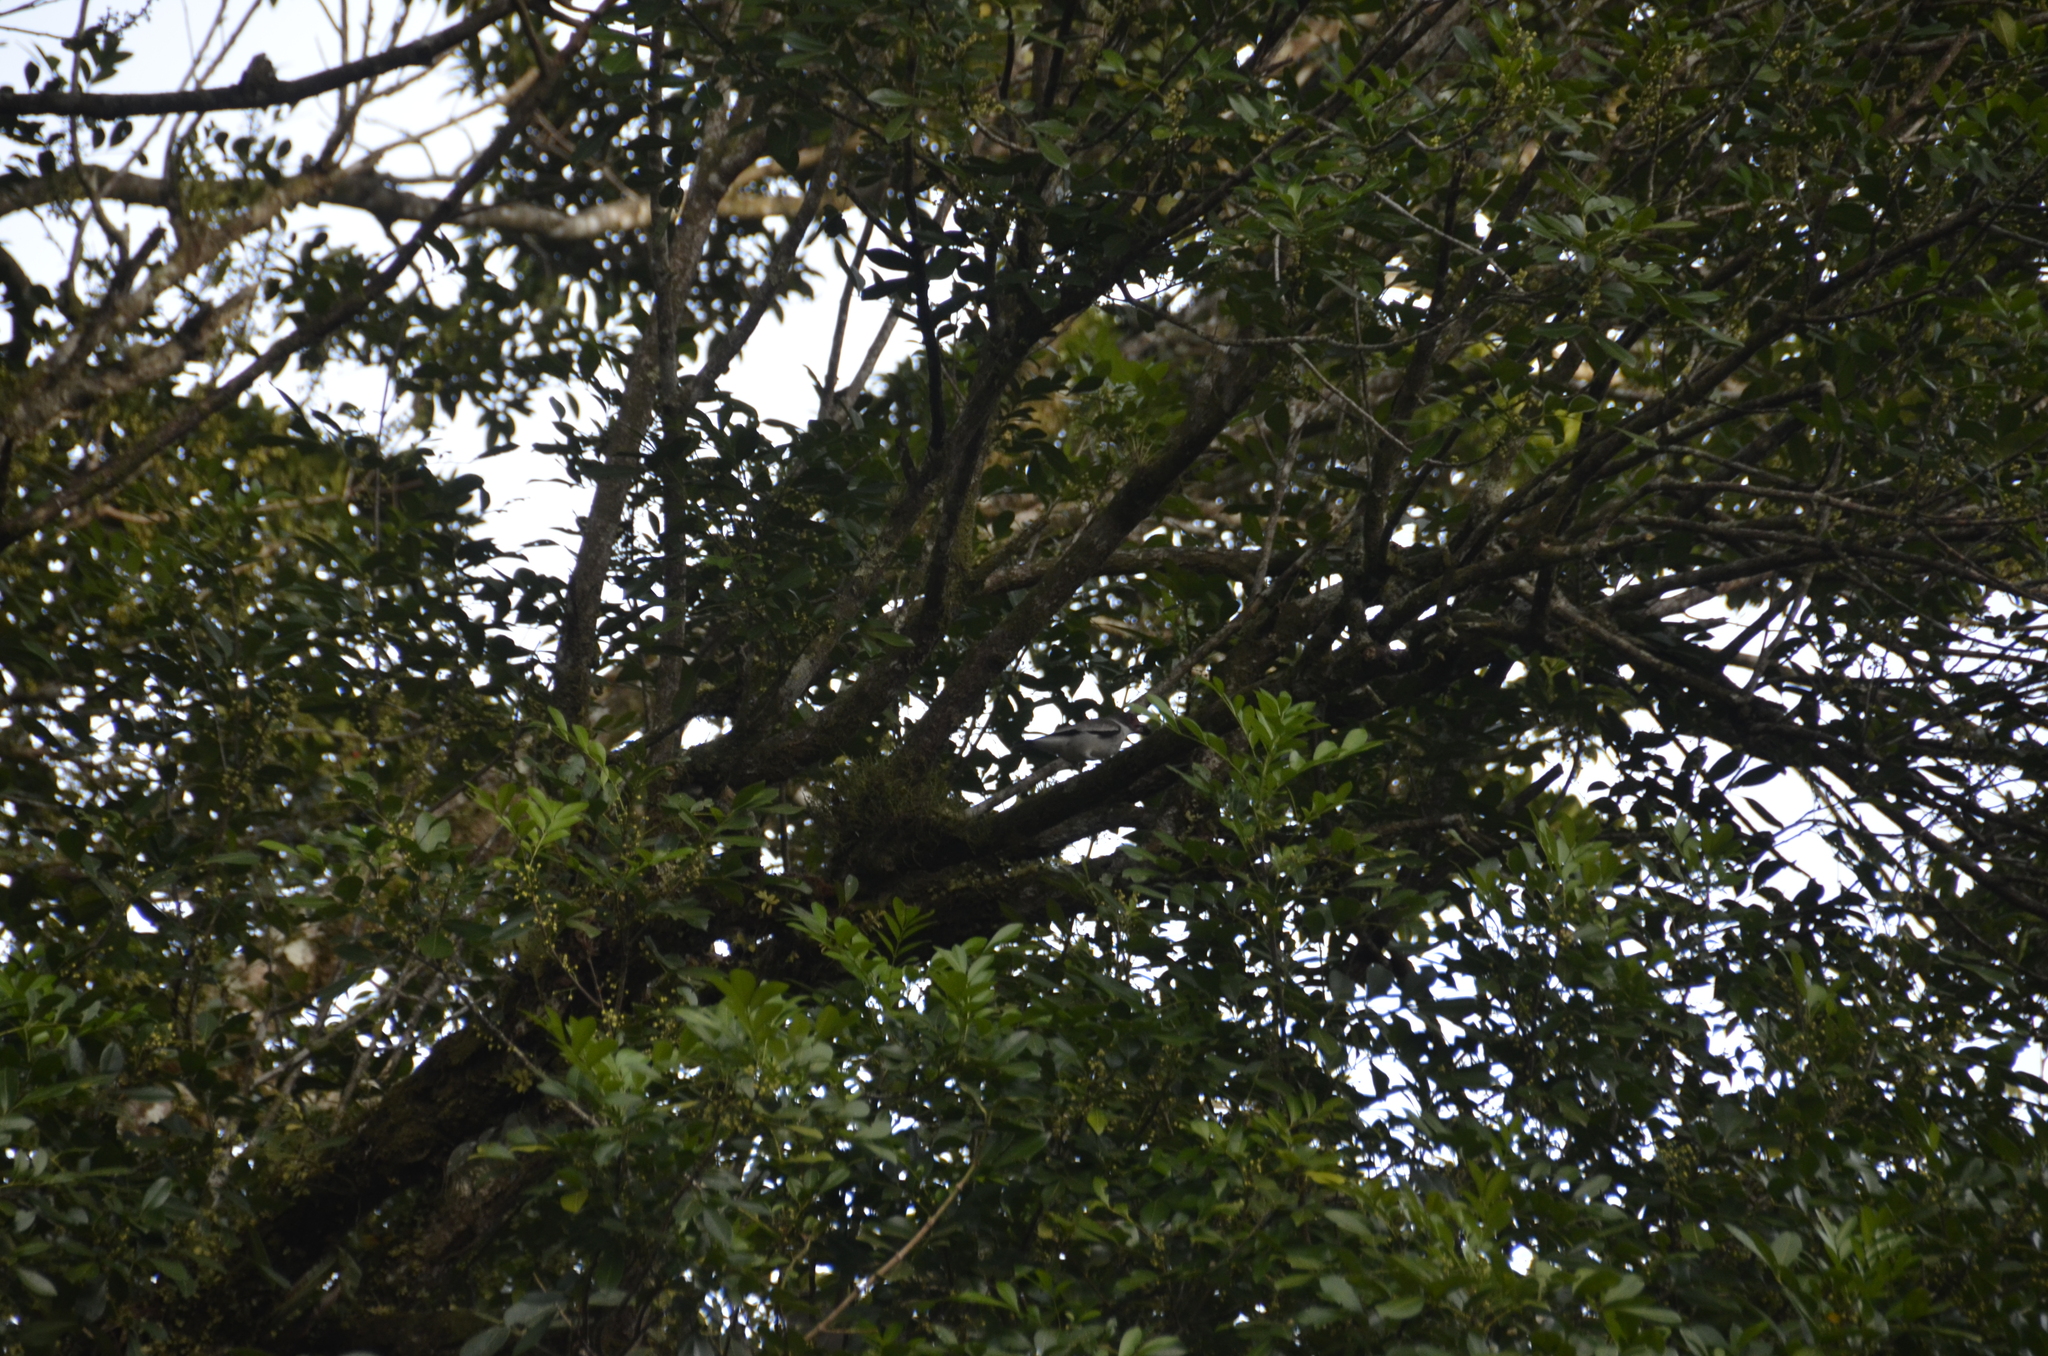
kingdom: Animalia
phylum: Chordata
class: Aves
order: Passeriformes
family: Cotingidae
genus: Tityra
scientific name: Tityra semifasciata
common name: Masked tityra
